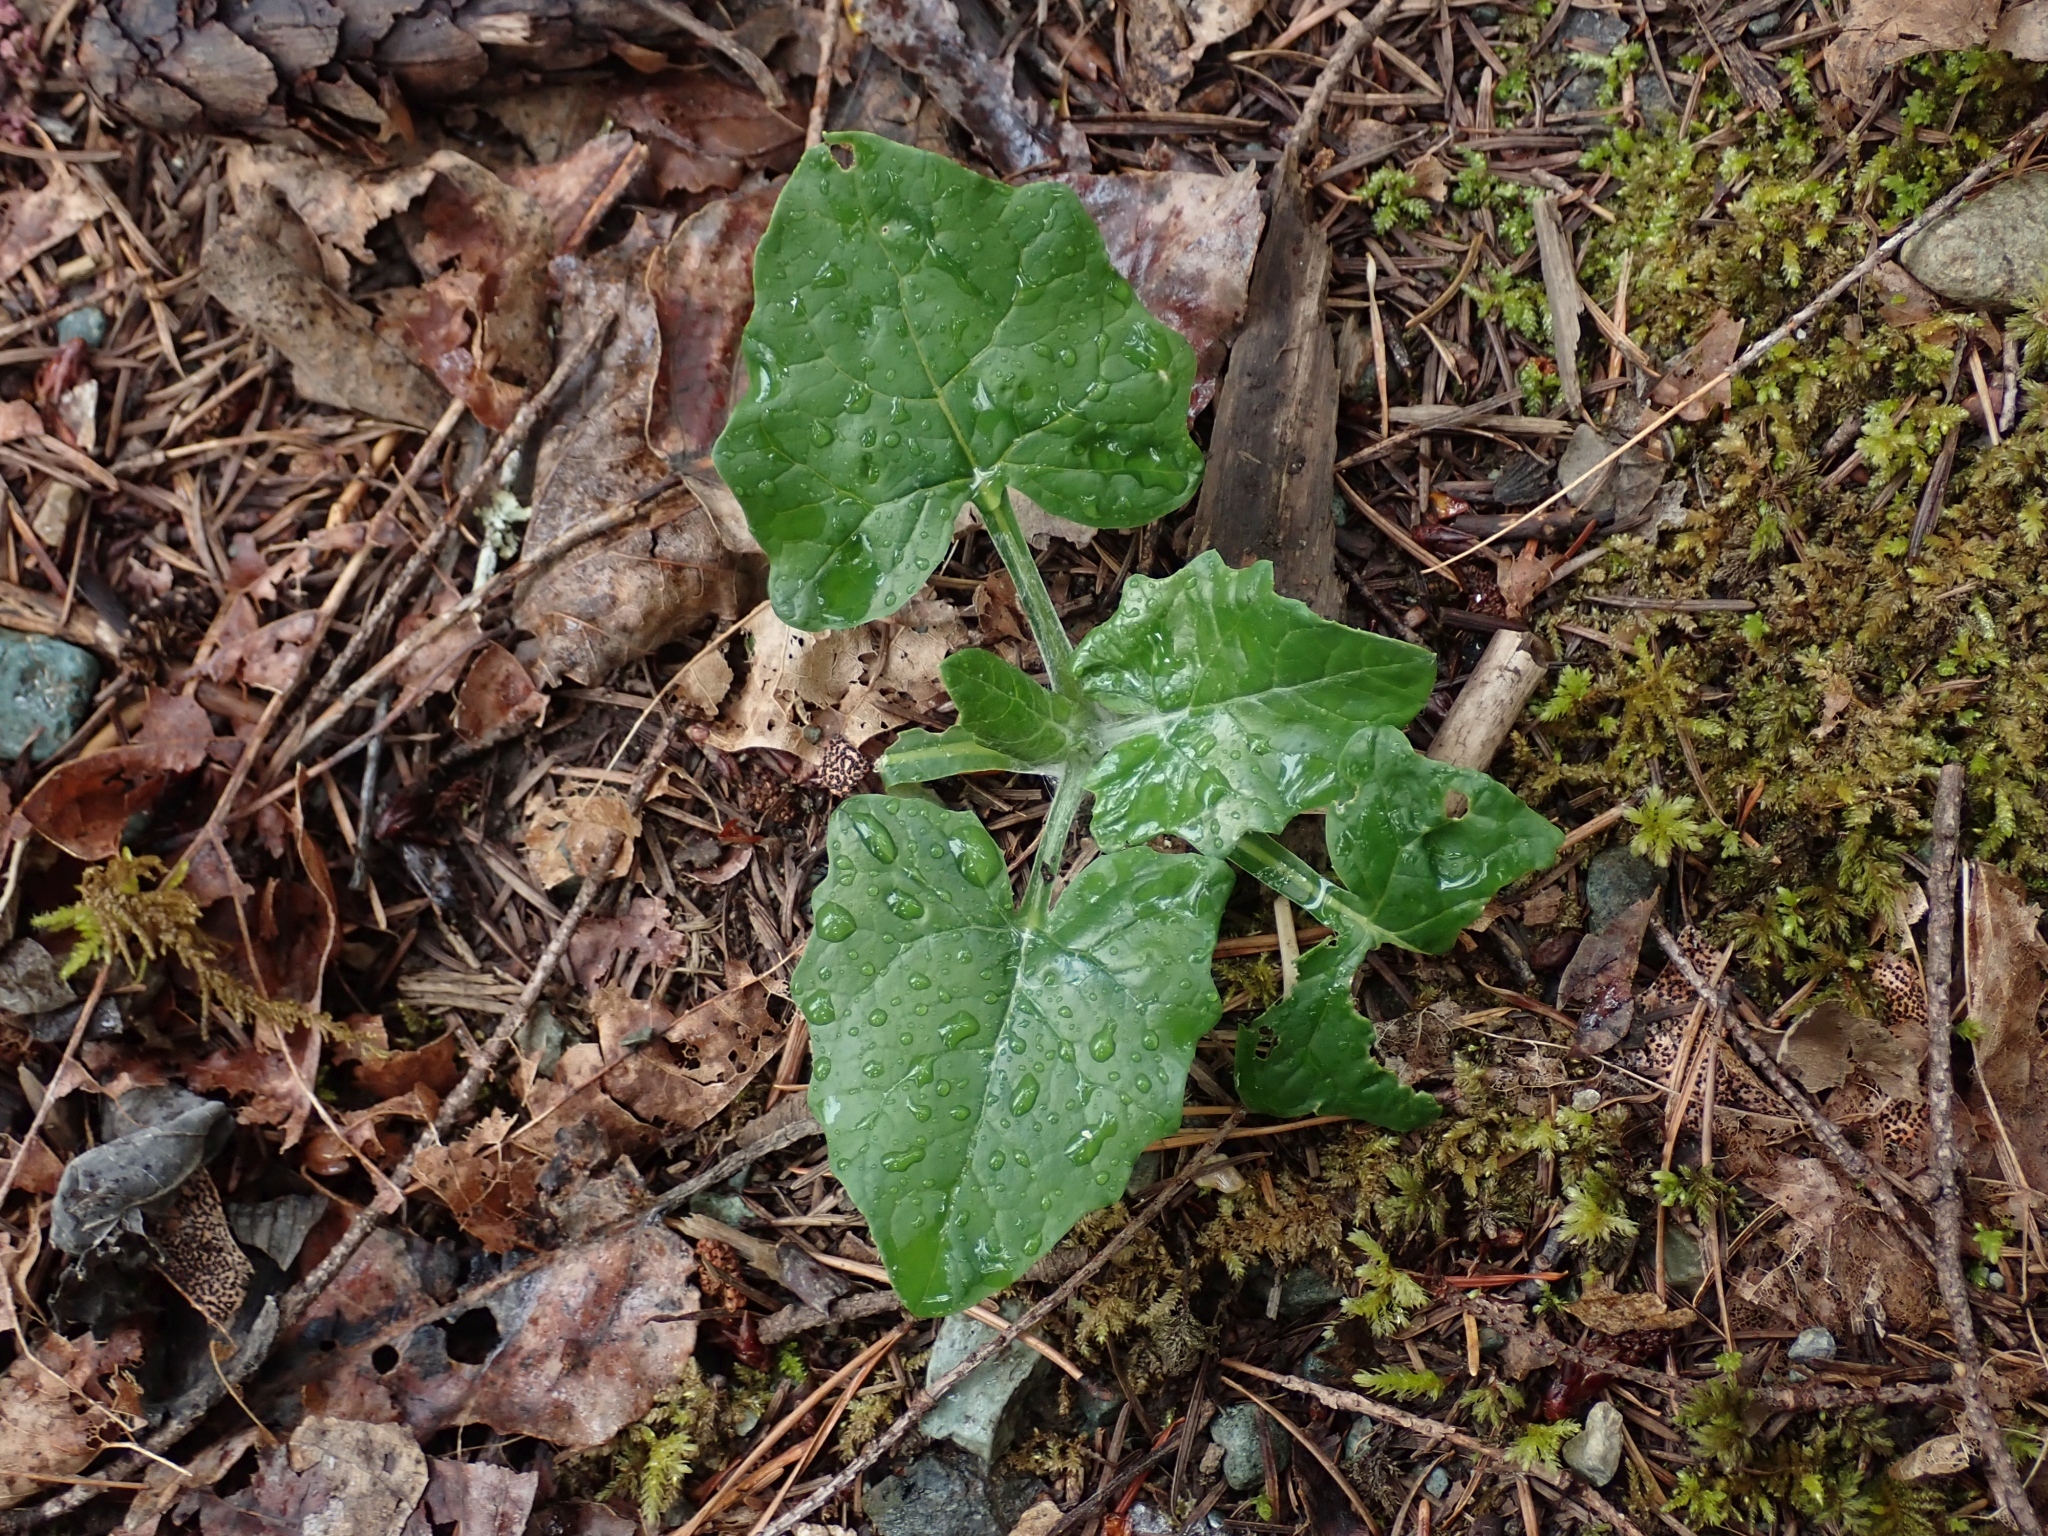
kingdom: Plantae
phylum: Tracheophyta
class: Magnoliopsida
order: Asterales
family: Asteraceae
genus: Adenocaulon
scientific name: Adenocaulon bicolor
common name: Trailplant
